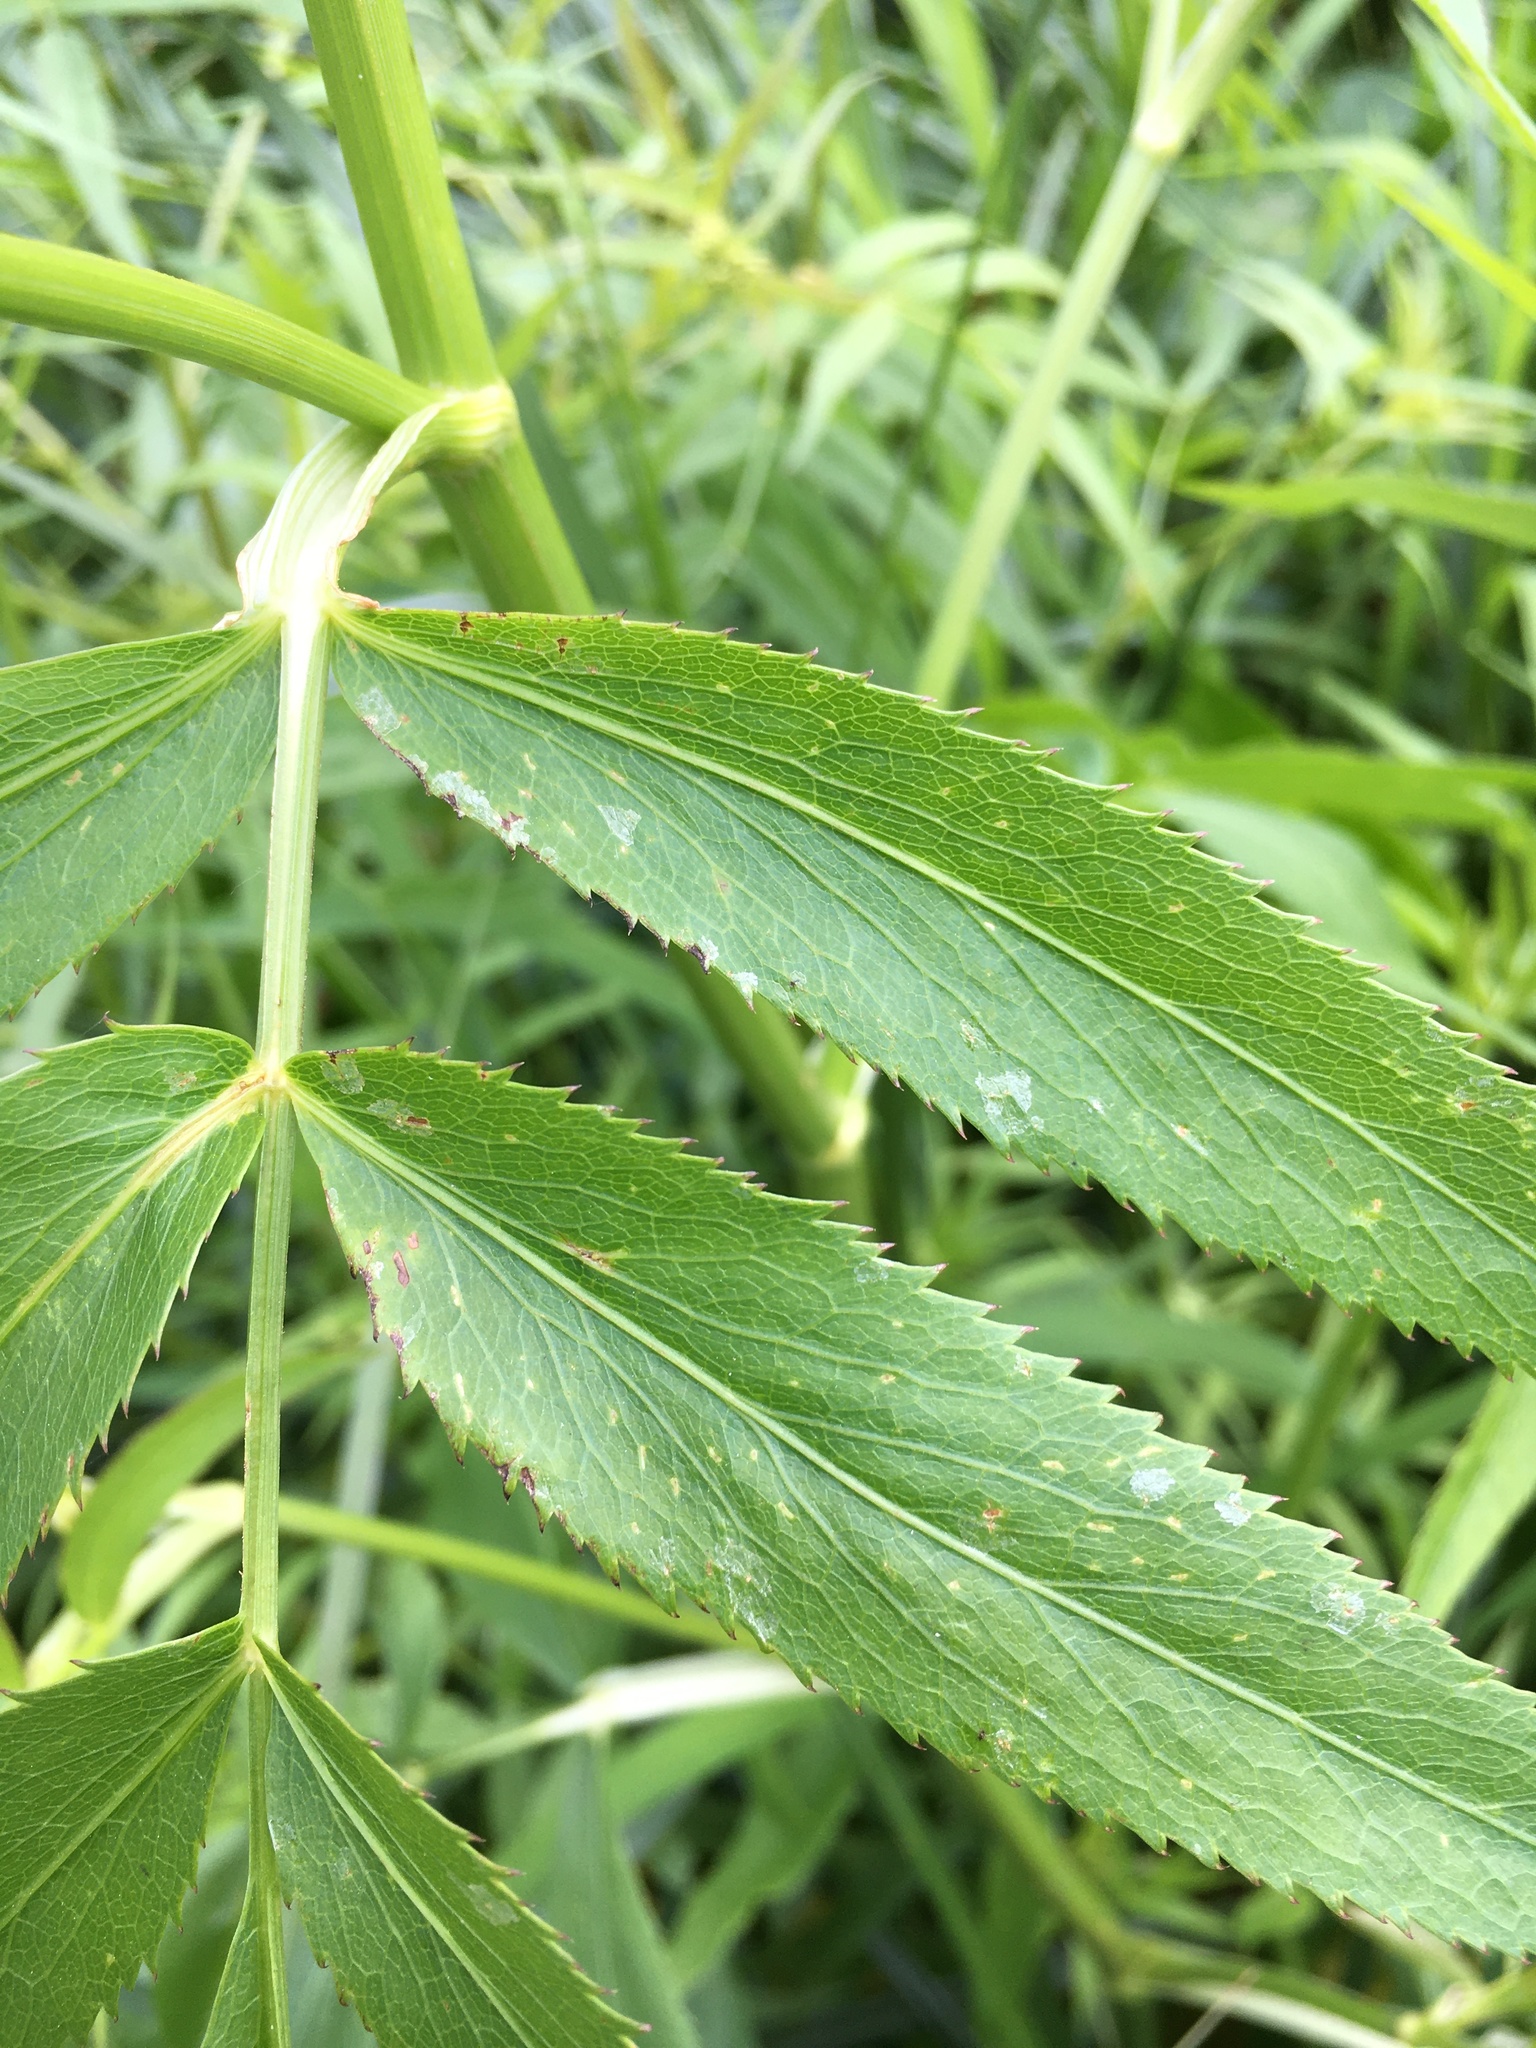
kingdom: Plantae
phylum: Tracheophyta
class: Magnoliopsida
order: Apiales
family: Apiaceae
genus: Sium
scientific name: Sium suave
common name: Hemlock water-parsnip
